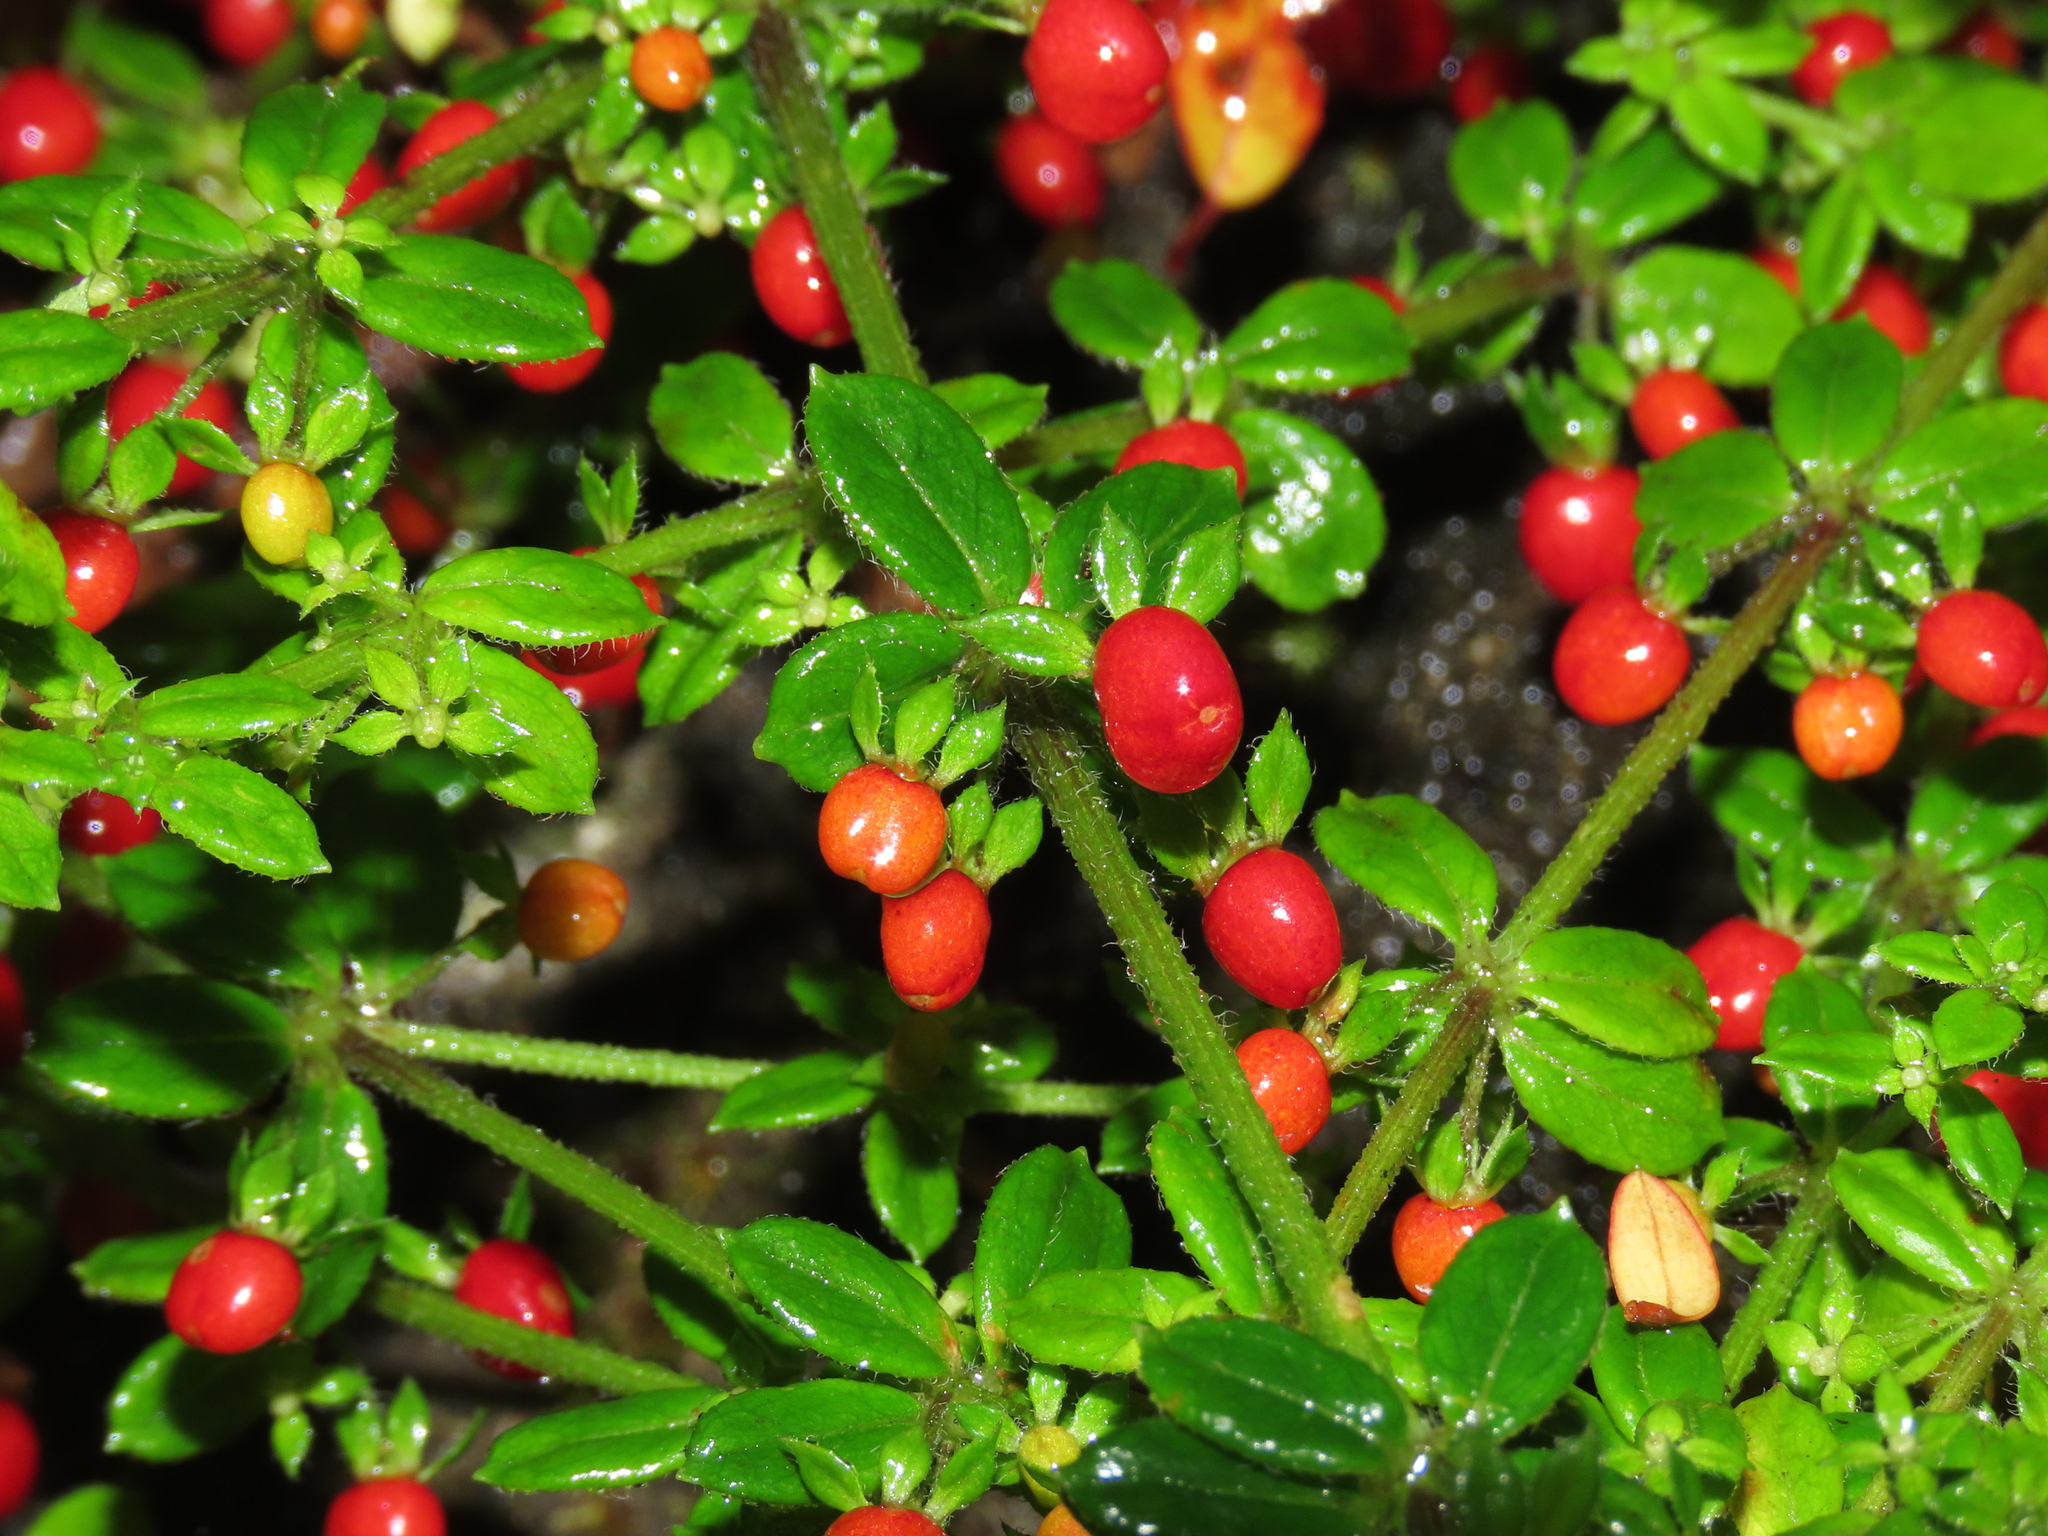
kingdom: Plantae
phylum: Tracheophyta
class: Magnoliopsida
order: Gentianales
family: Rubiaceae
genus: Galium
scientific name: Galium hypocarpium
